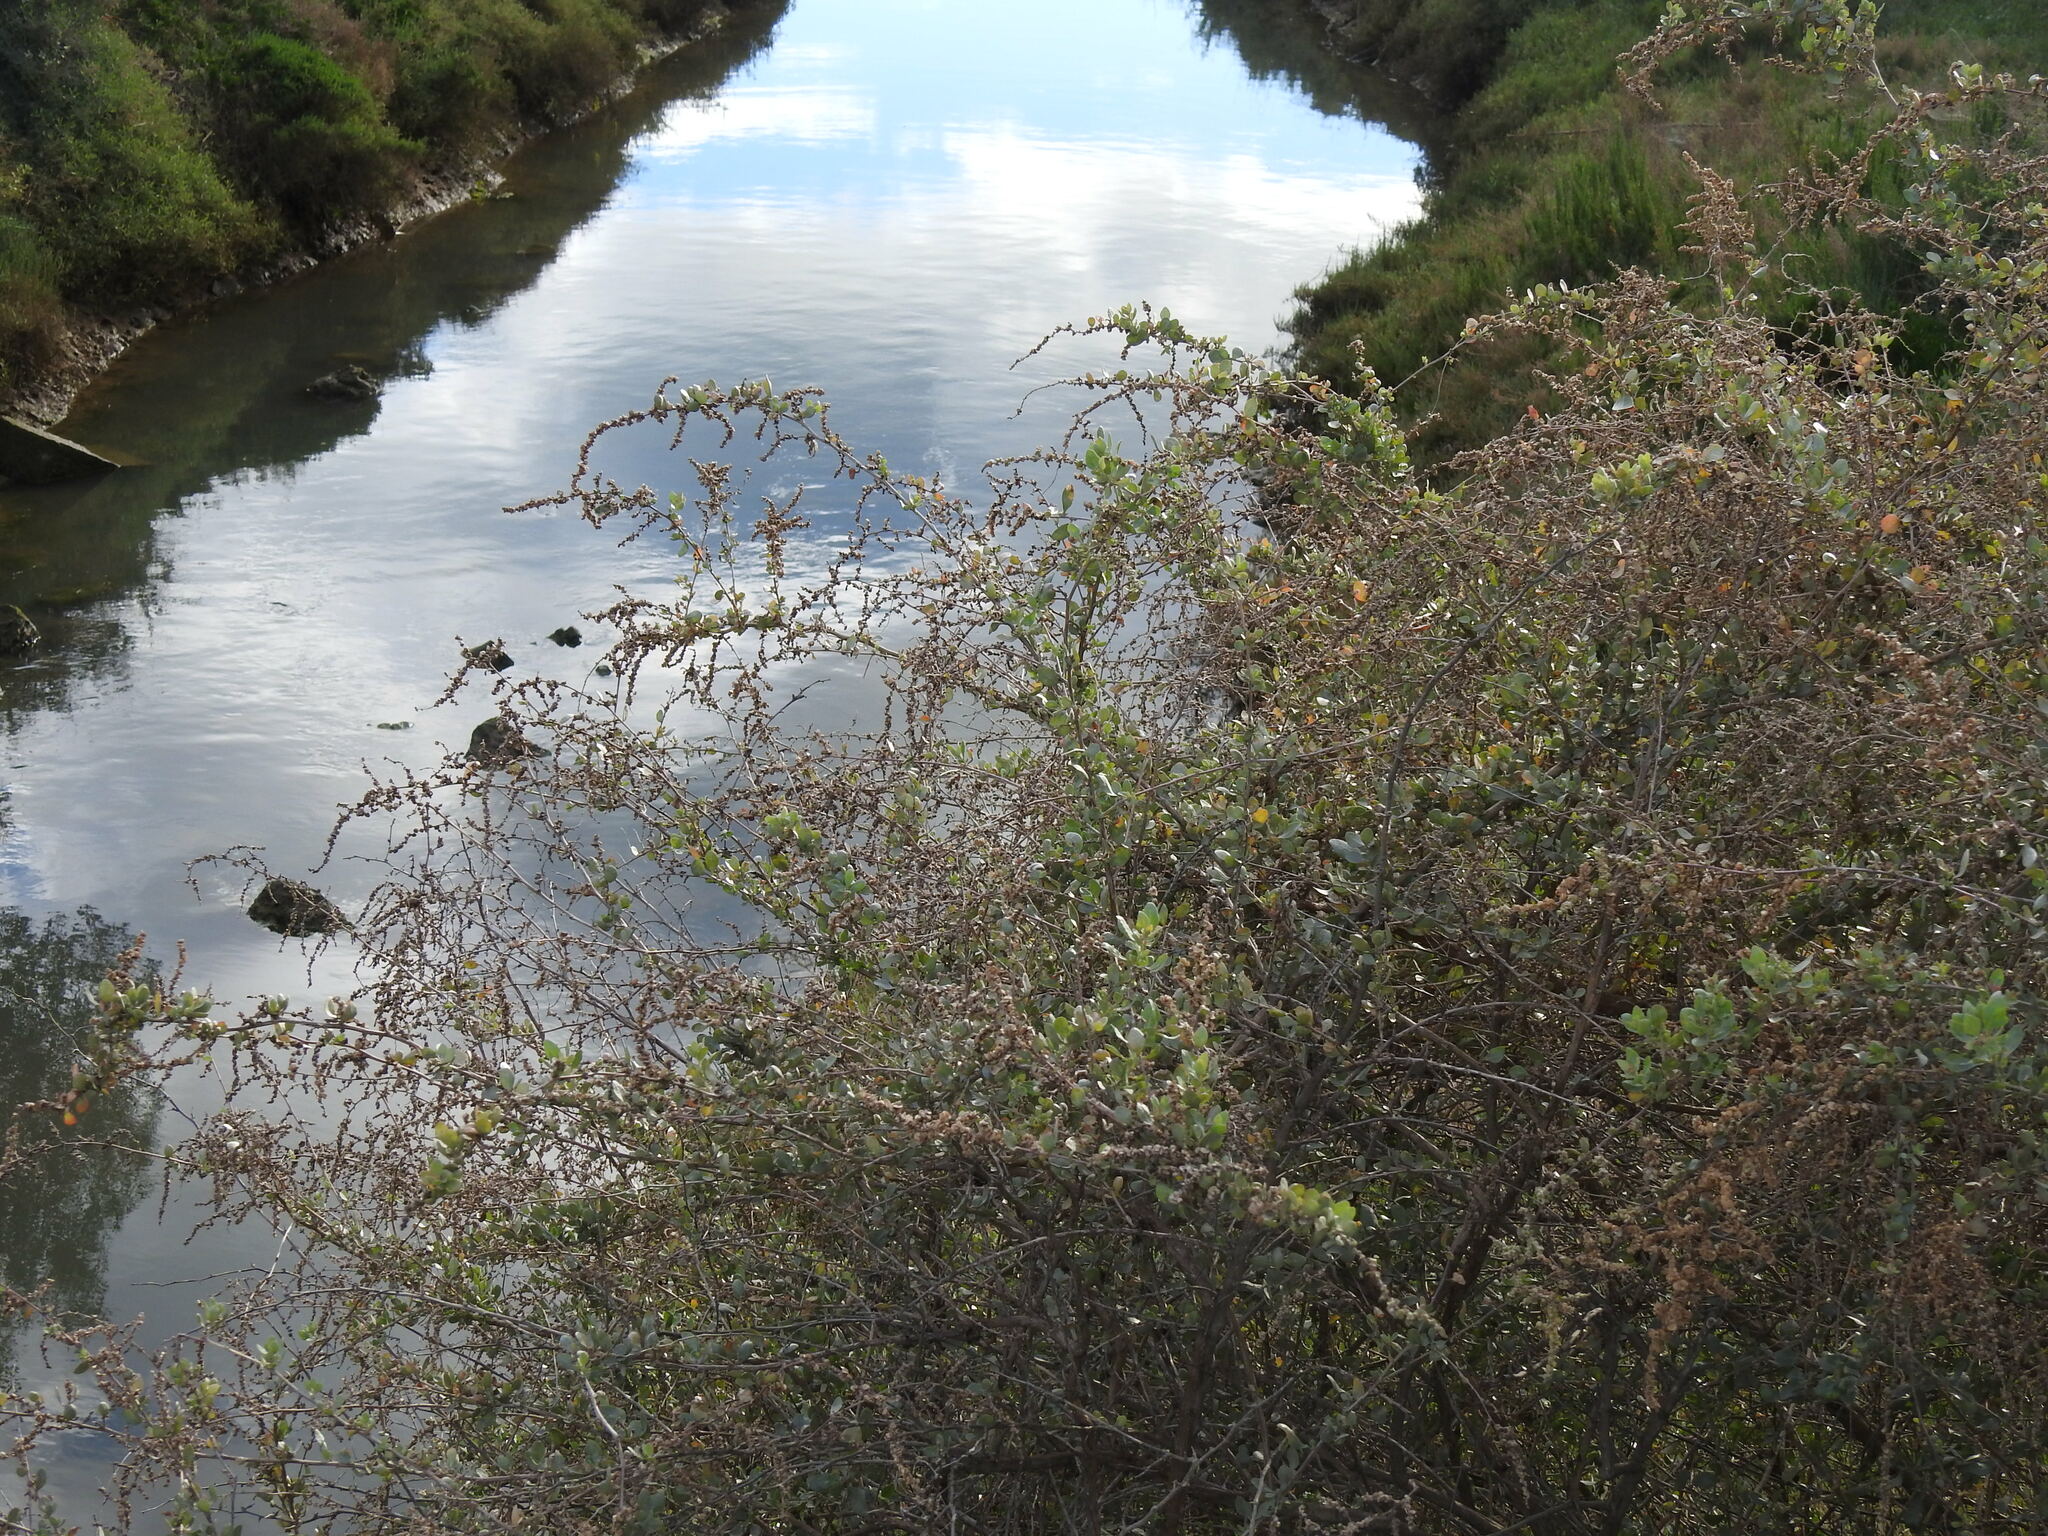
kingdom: Plantae
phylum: Tracheophyta
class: Magnoliopsida
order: Caryophyllales
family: Amaranthaceae
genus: Atriplex
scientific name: Atriplex halimus
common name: Shrubby orache
